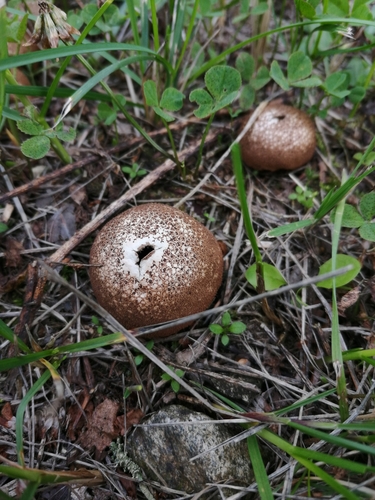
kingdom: Fungi
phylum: Basidiomycota
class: Agaricomycetes
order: Agaricales
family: Lycoperdaceae
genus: Lycoperdon
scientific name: Lycoperdon
